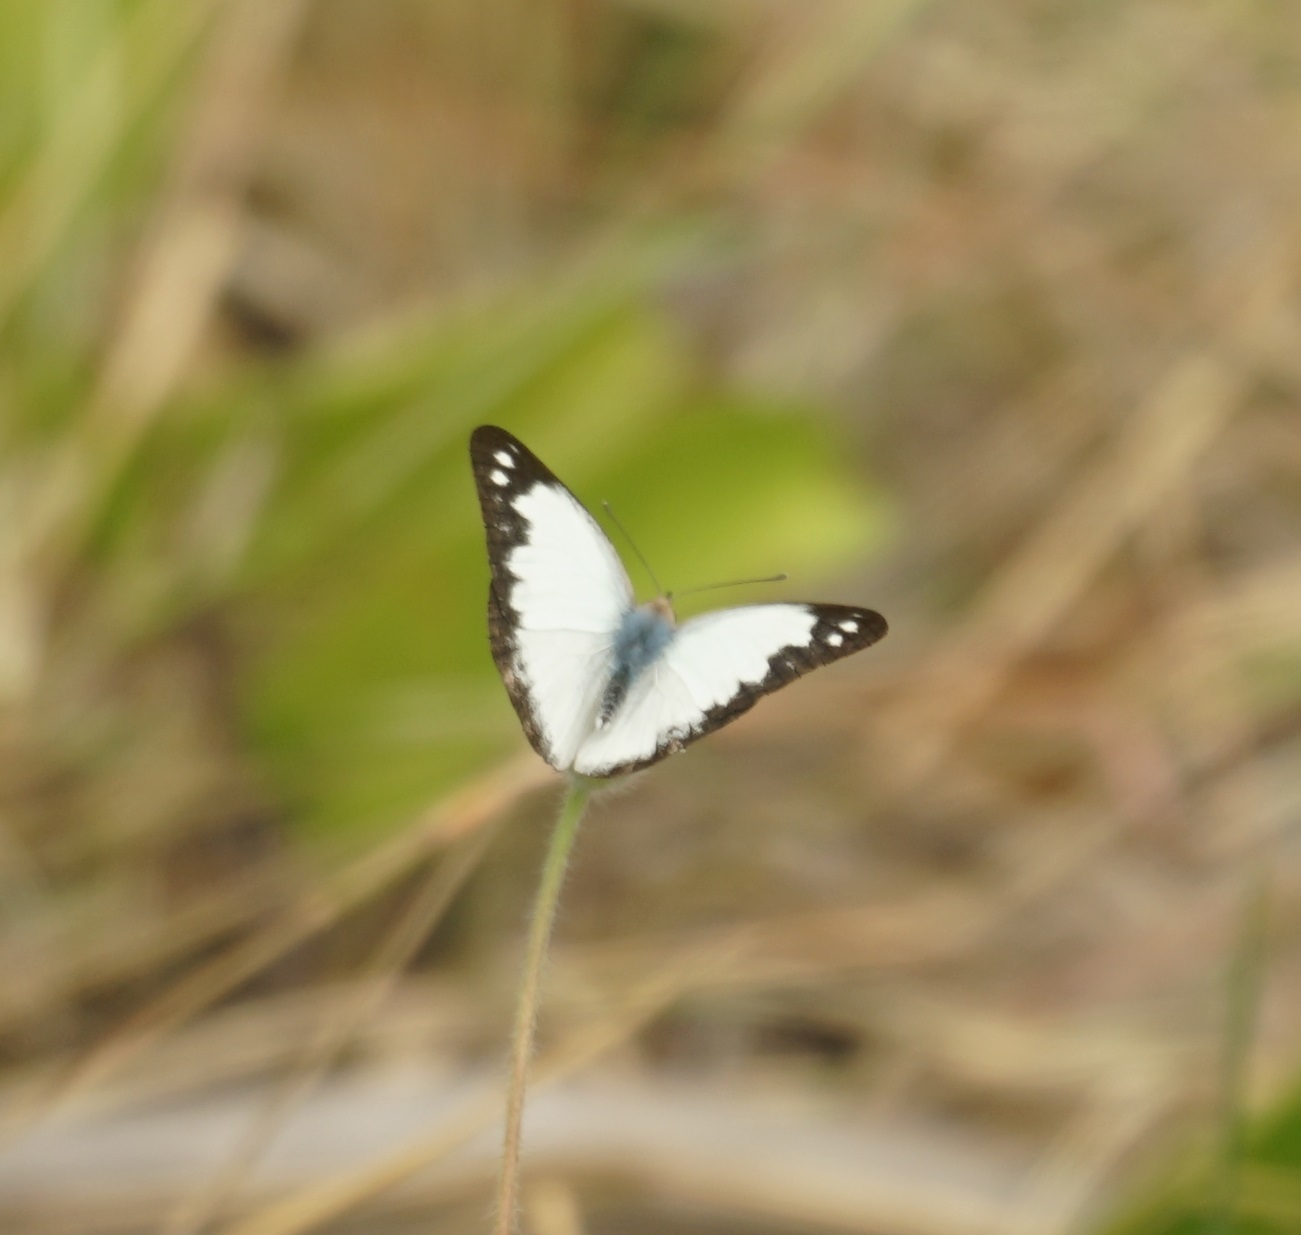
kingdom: Animalia
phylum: Arthropoda
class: Insecta
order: Lepidoptera
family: Pieridae
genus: Cepora
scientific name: Cepora perimale
